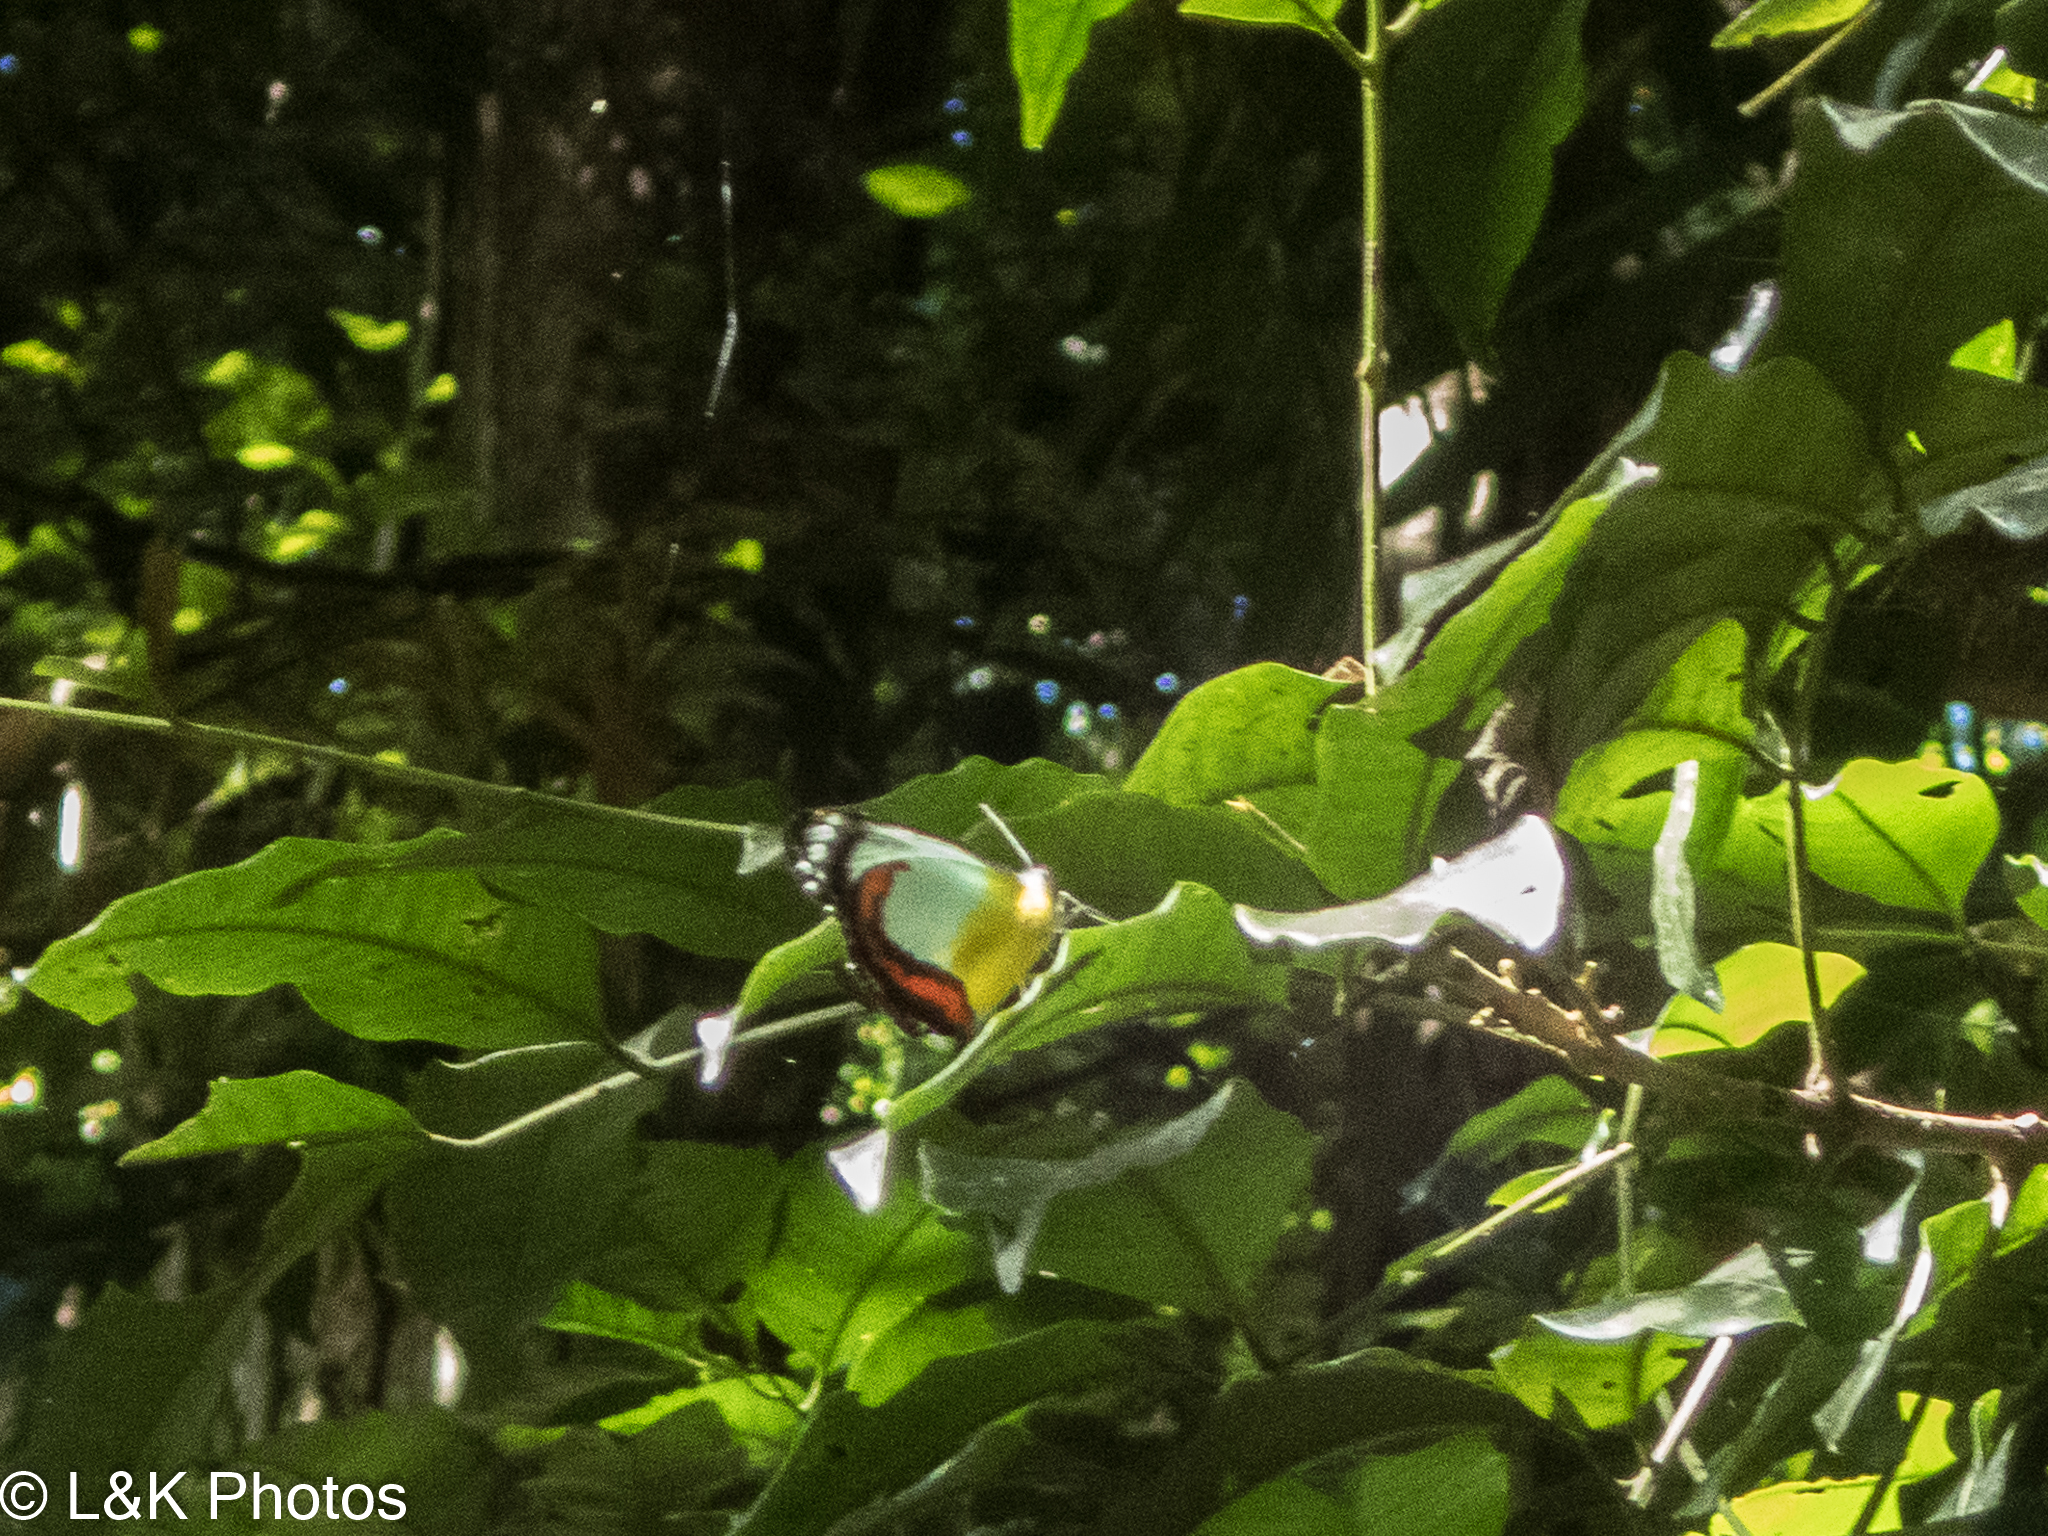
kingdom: Animalia
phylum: Arthropoda
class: Insecta
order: Lepidoptera
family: Pieridae
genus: Delias
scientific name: Delias mysis
